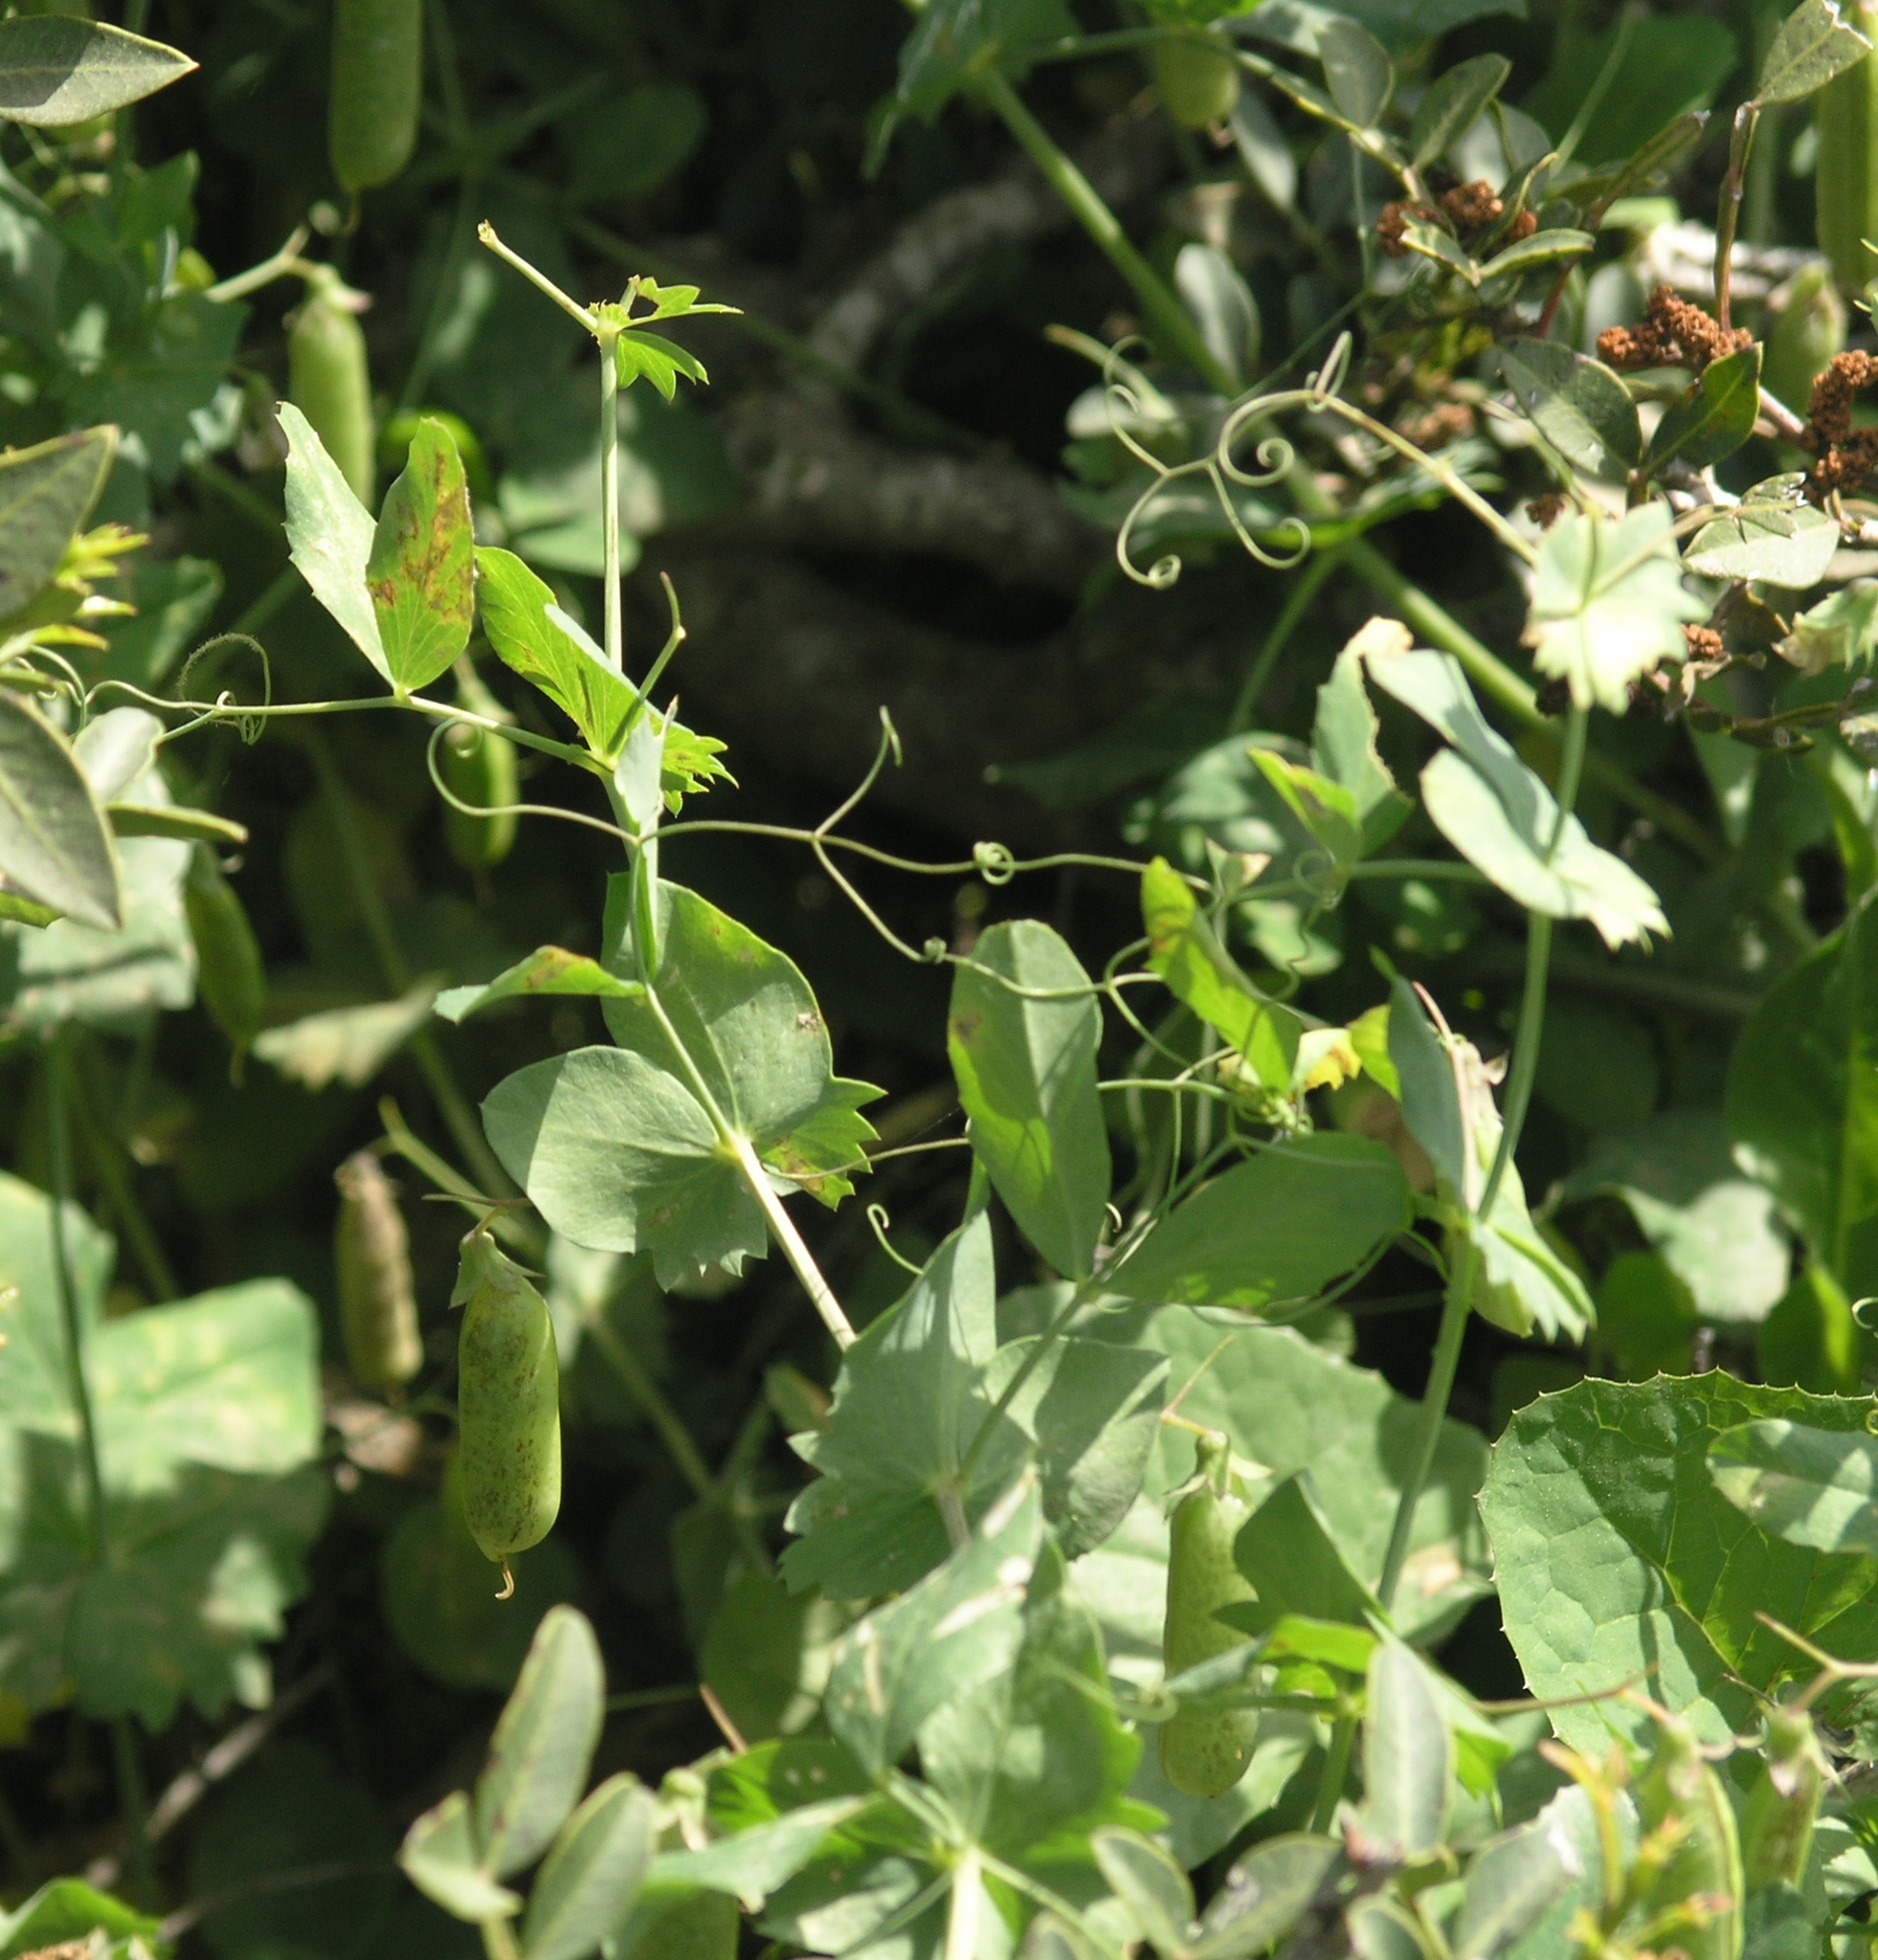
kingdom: Plantae
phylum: Tracheophyta
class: Magnoliopsida
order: Fabales
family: Fabaceae
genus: Lathyrus
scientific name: Lathyrus fulvus
